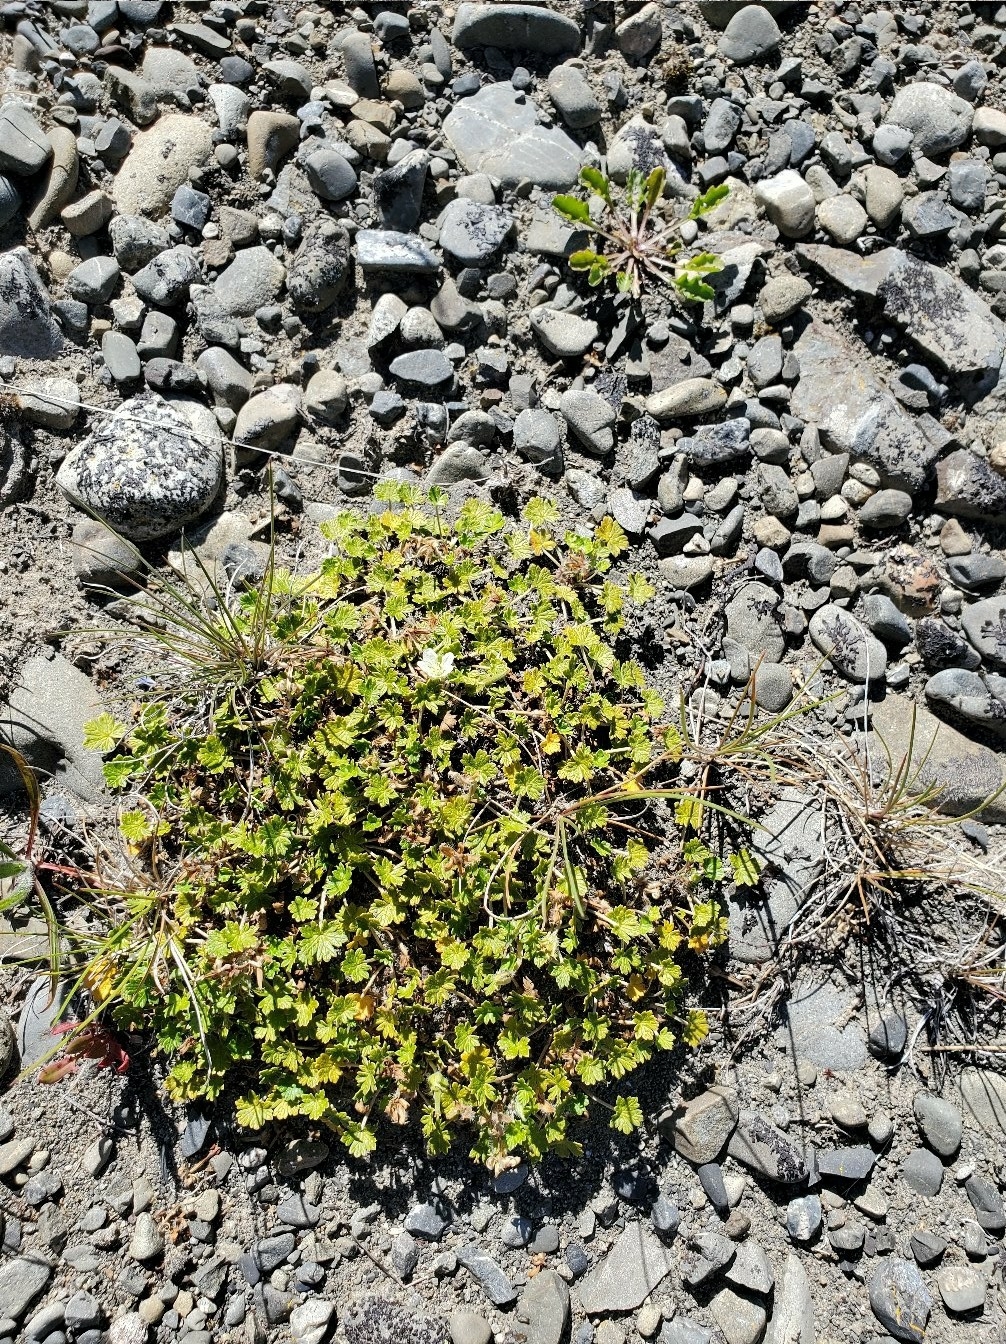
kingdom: Plantae
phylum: Tracheophyta
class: Magnoliopsida
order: Geraniales
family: Geraniaceae
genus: Geranium
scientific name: Geranium brevicaule
